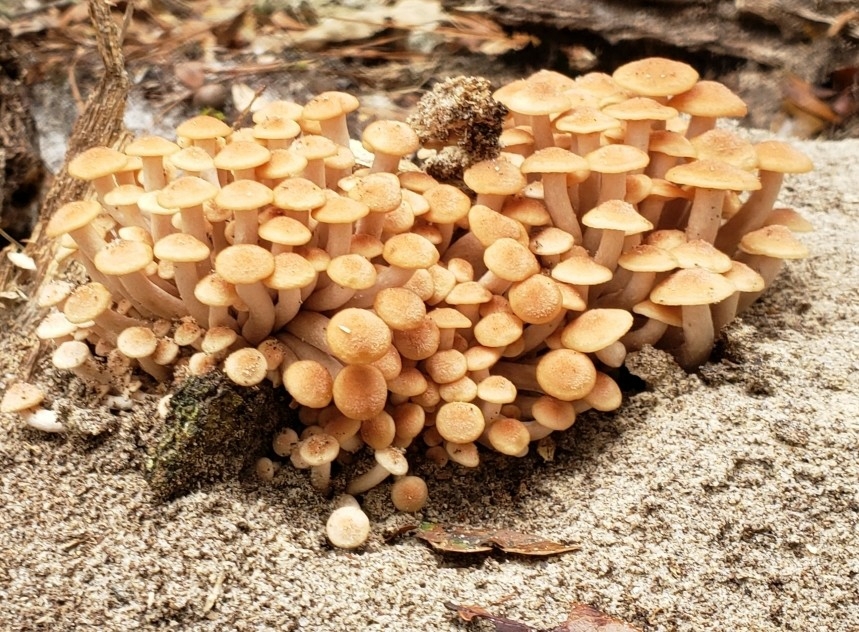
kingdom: Fungi
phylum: Basidiomycota
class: Agaricomycetes
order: Agaricales
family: Physalacriaceae
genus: Desarmillaria
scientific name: Desarmillaria caespitosa
